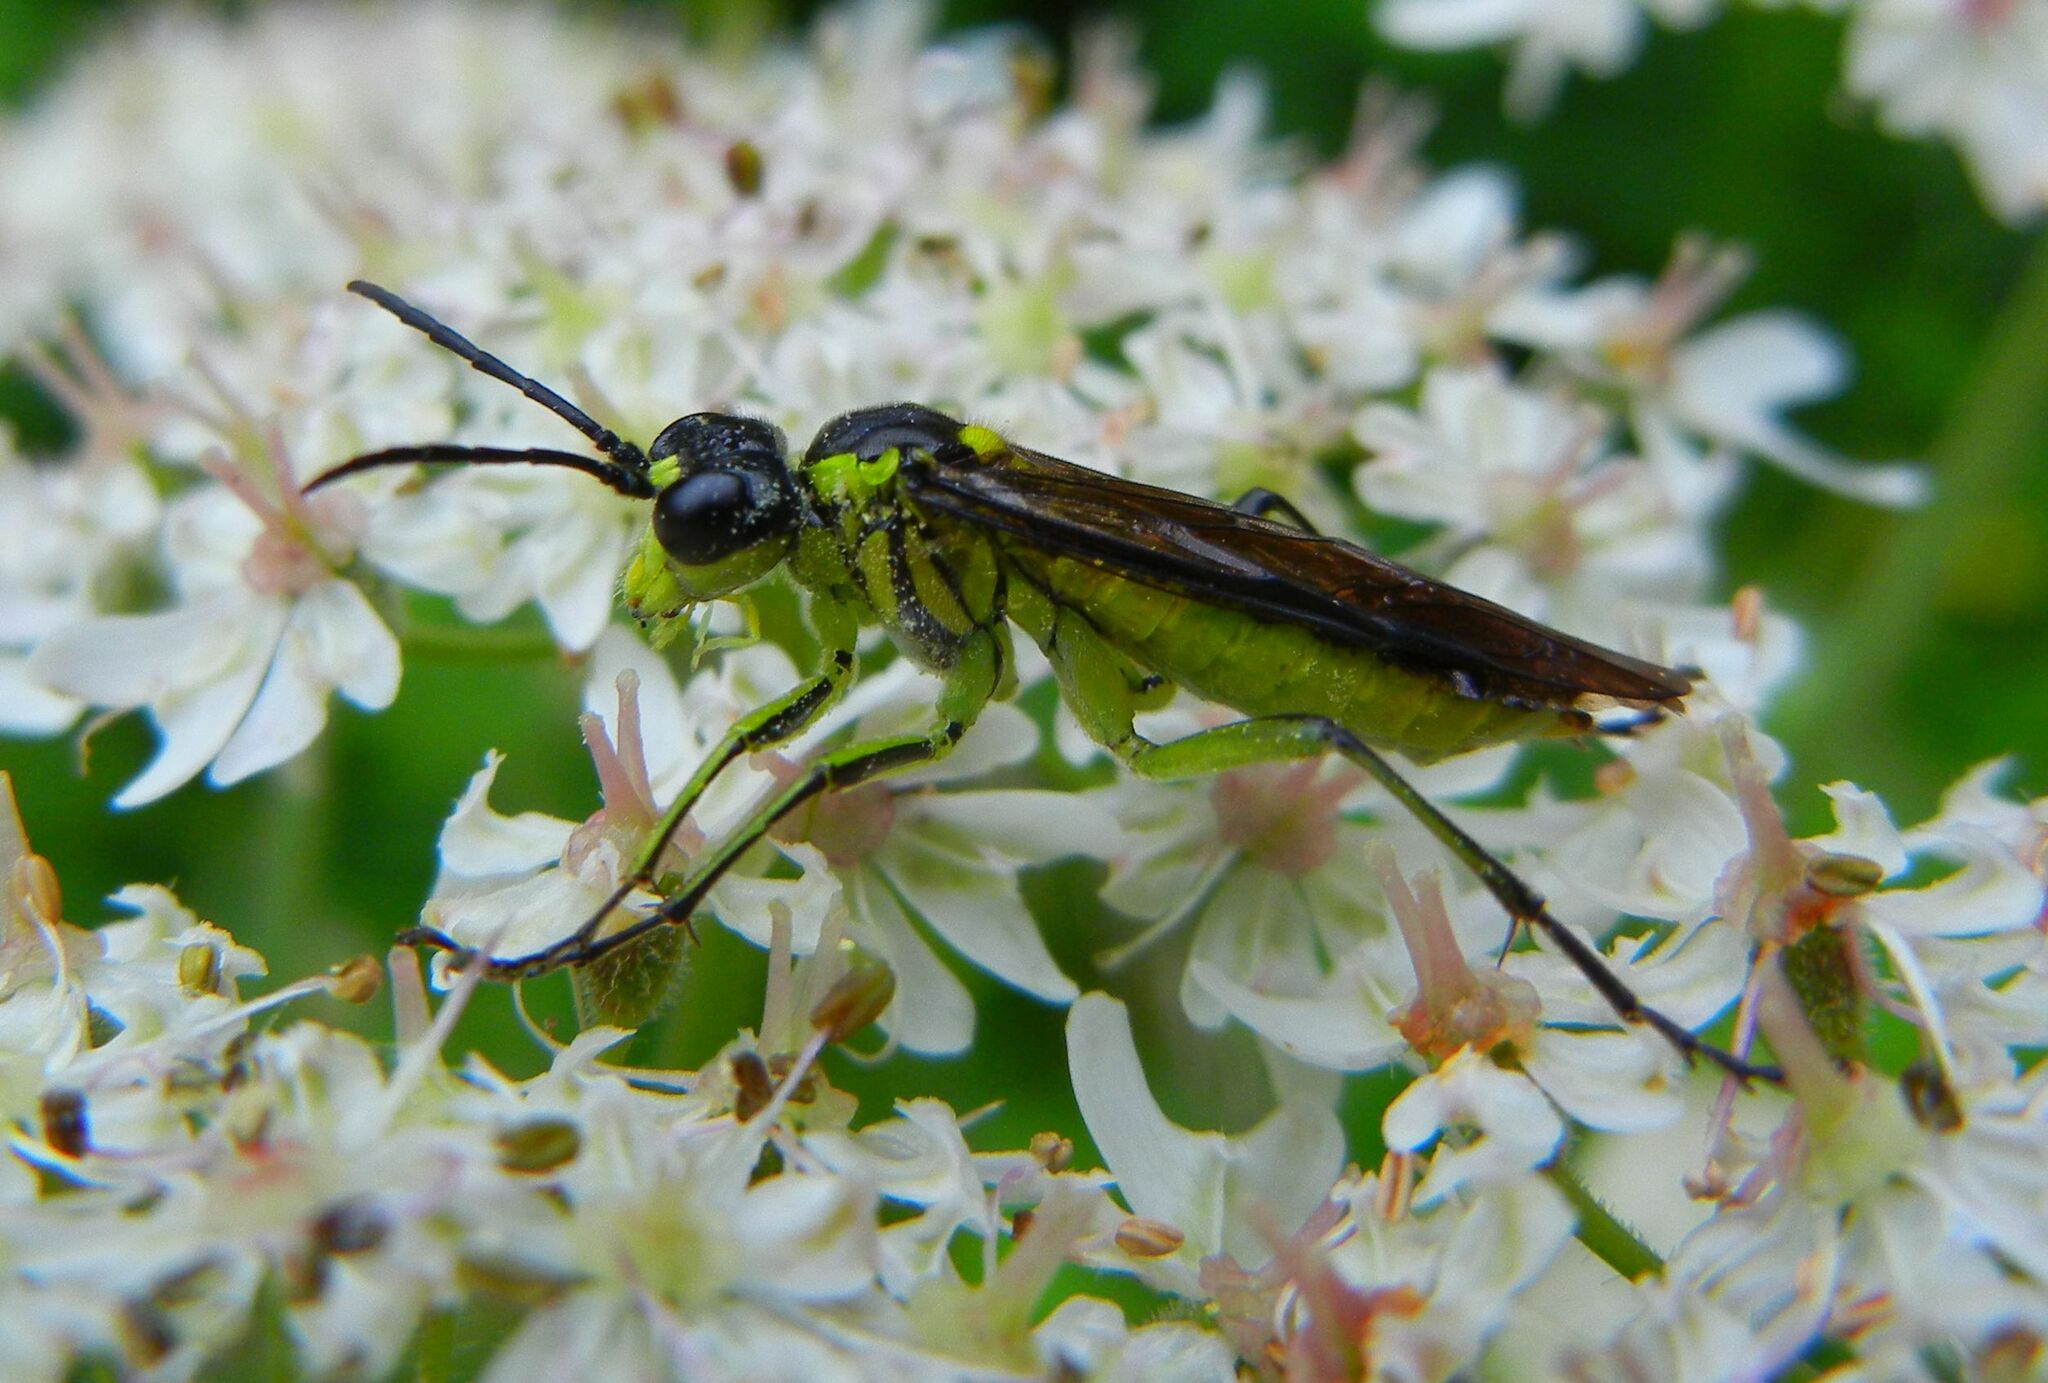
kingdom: Animalia
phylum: Arthropoda
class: Insecta
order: Hymenoptera
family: Tenthredinidae
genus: Tenthredo
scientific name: Tenthredo mesomela
